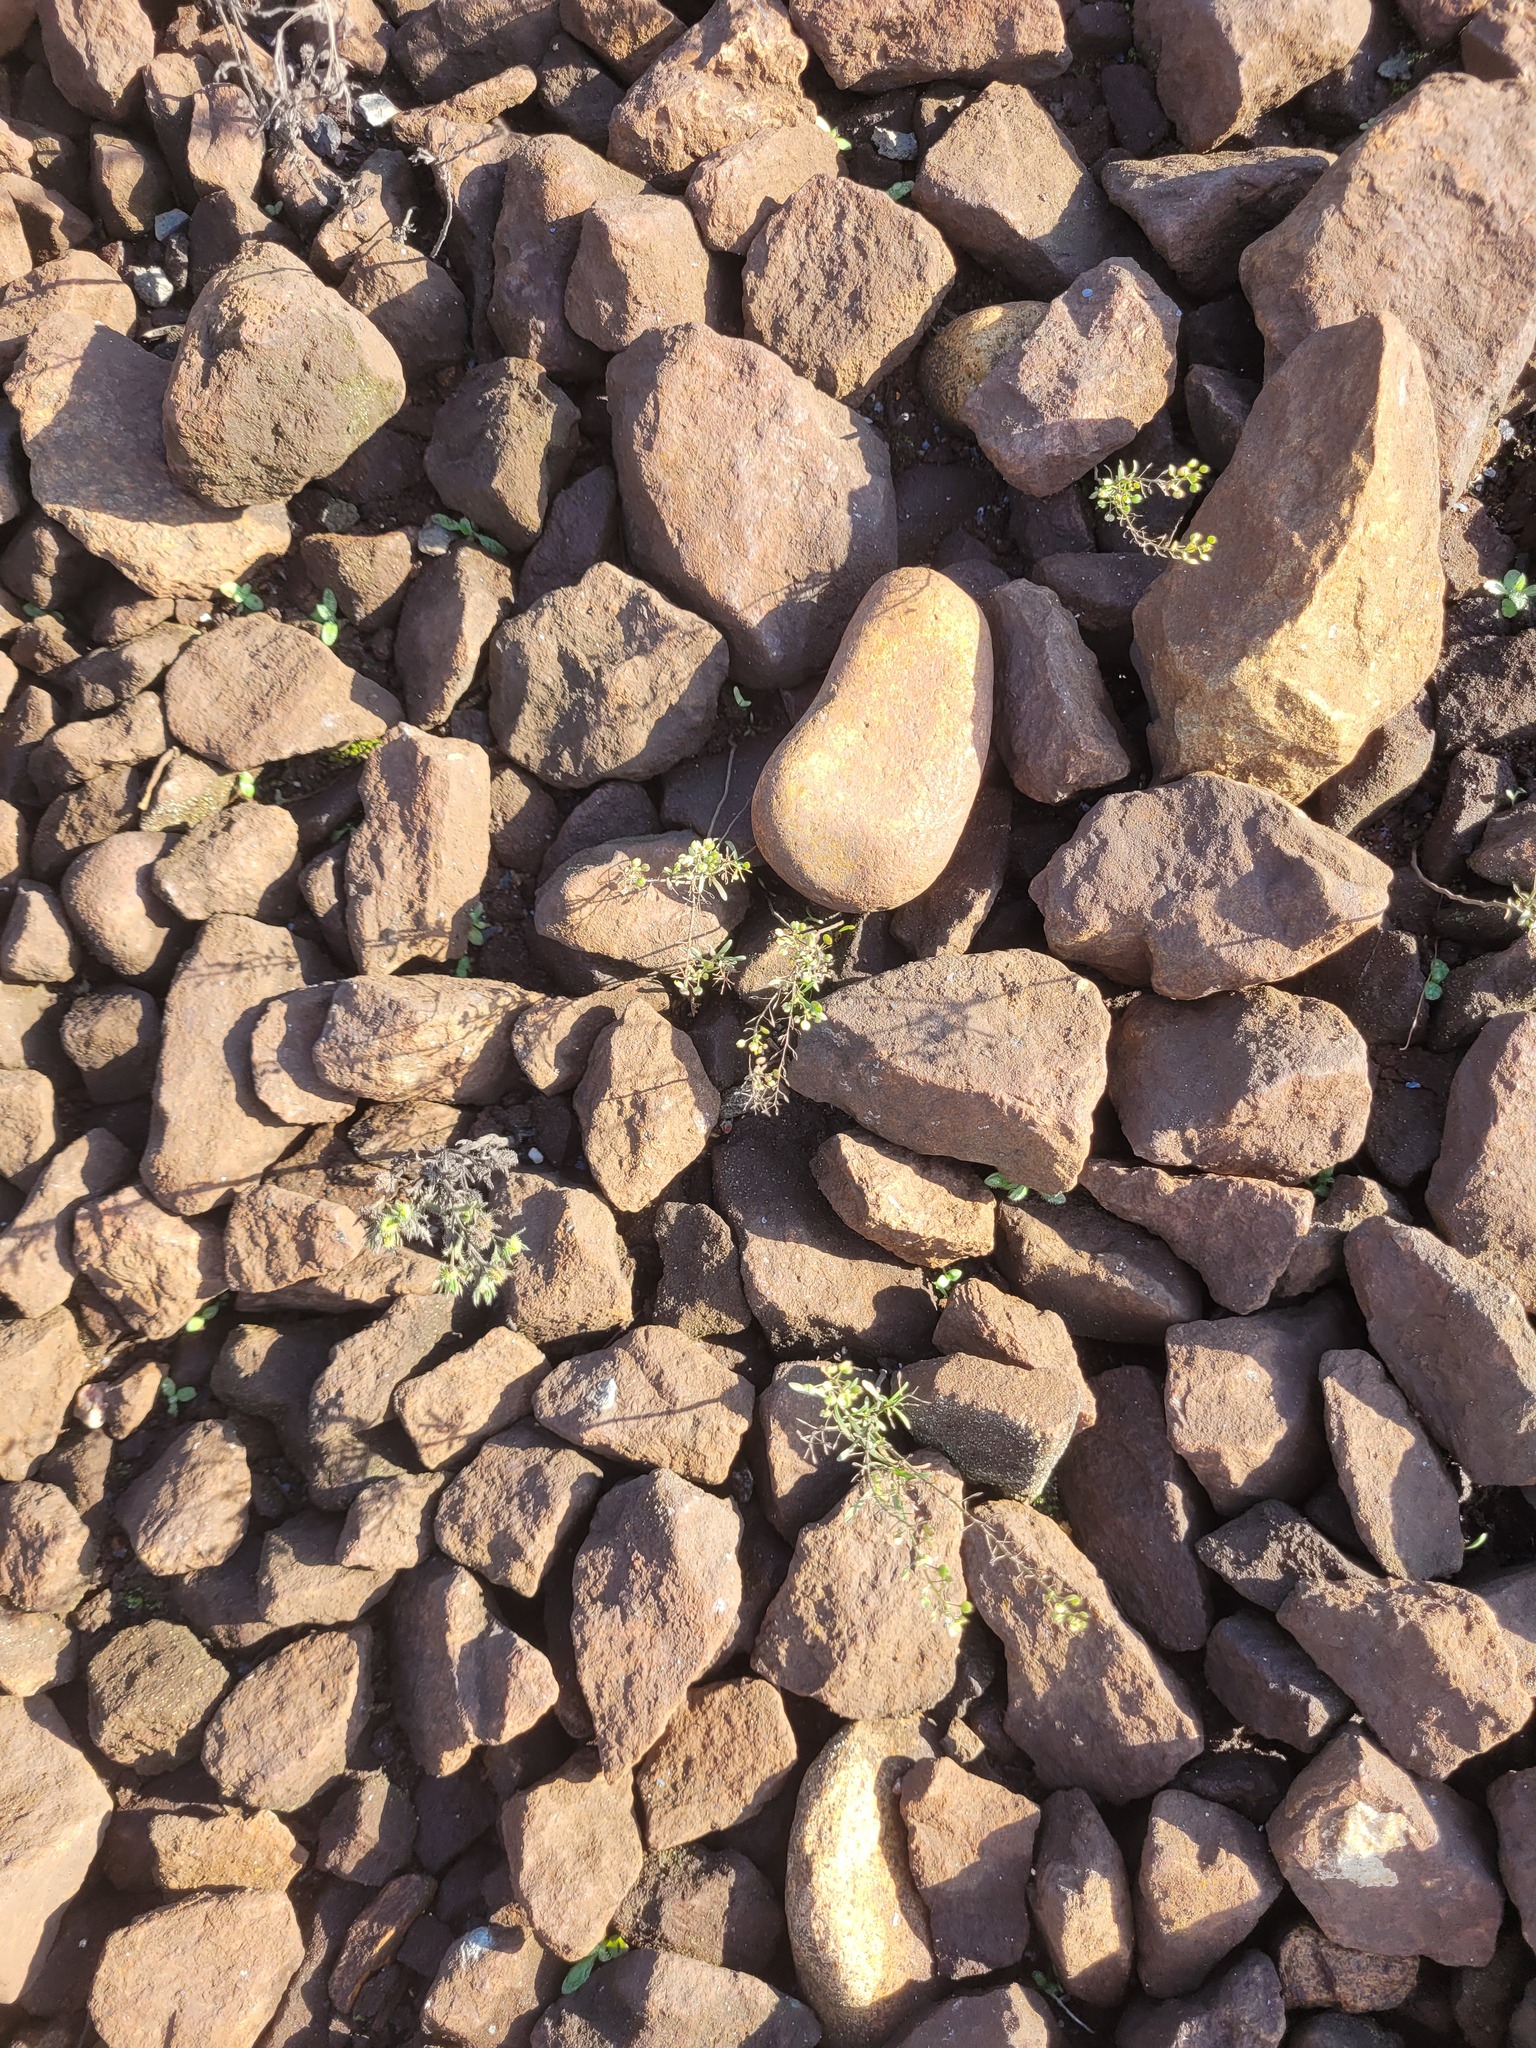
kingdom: Plantae
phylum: Tracheophyta
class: Magnoliopsida
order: Brassicales
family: Brassicaceae
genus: Lepidium
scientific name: Lepidium ruderale
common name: Narrow-leaved pepperwort
